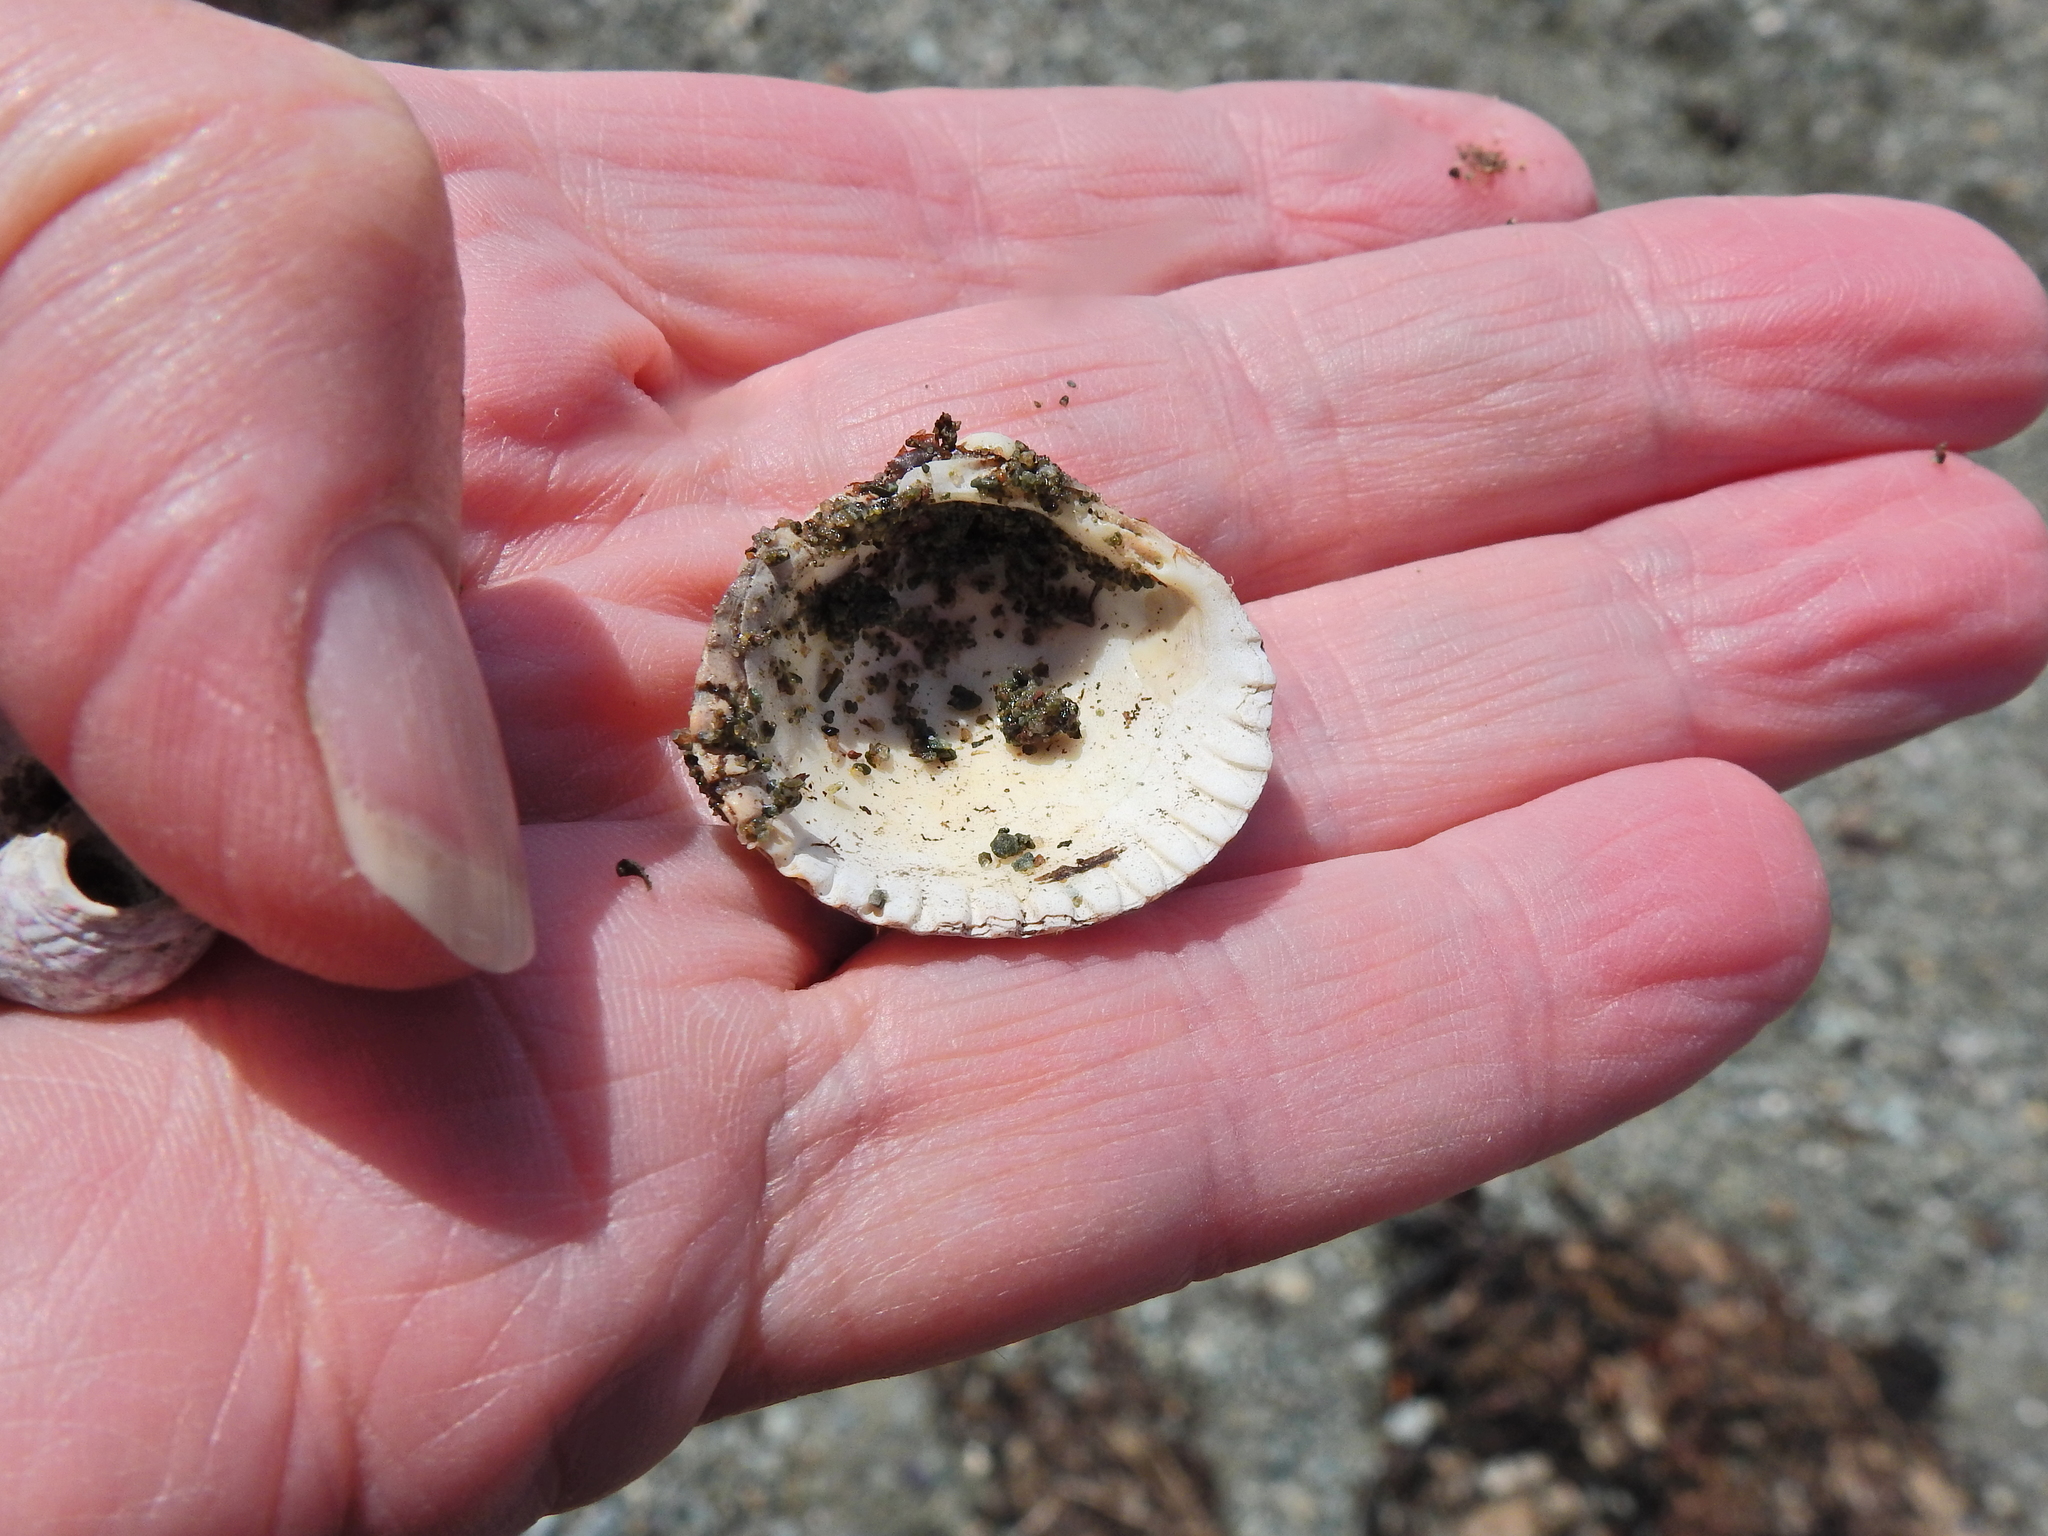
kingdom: Animalia
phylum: Mollusca
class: Bivalvia
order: Cardiida
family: Cardiidae
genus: Cerastoderma
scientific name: Cerastoderma edule
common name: Common cockle
